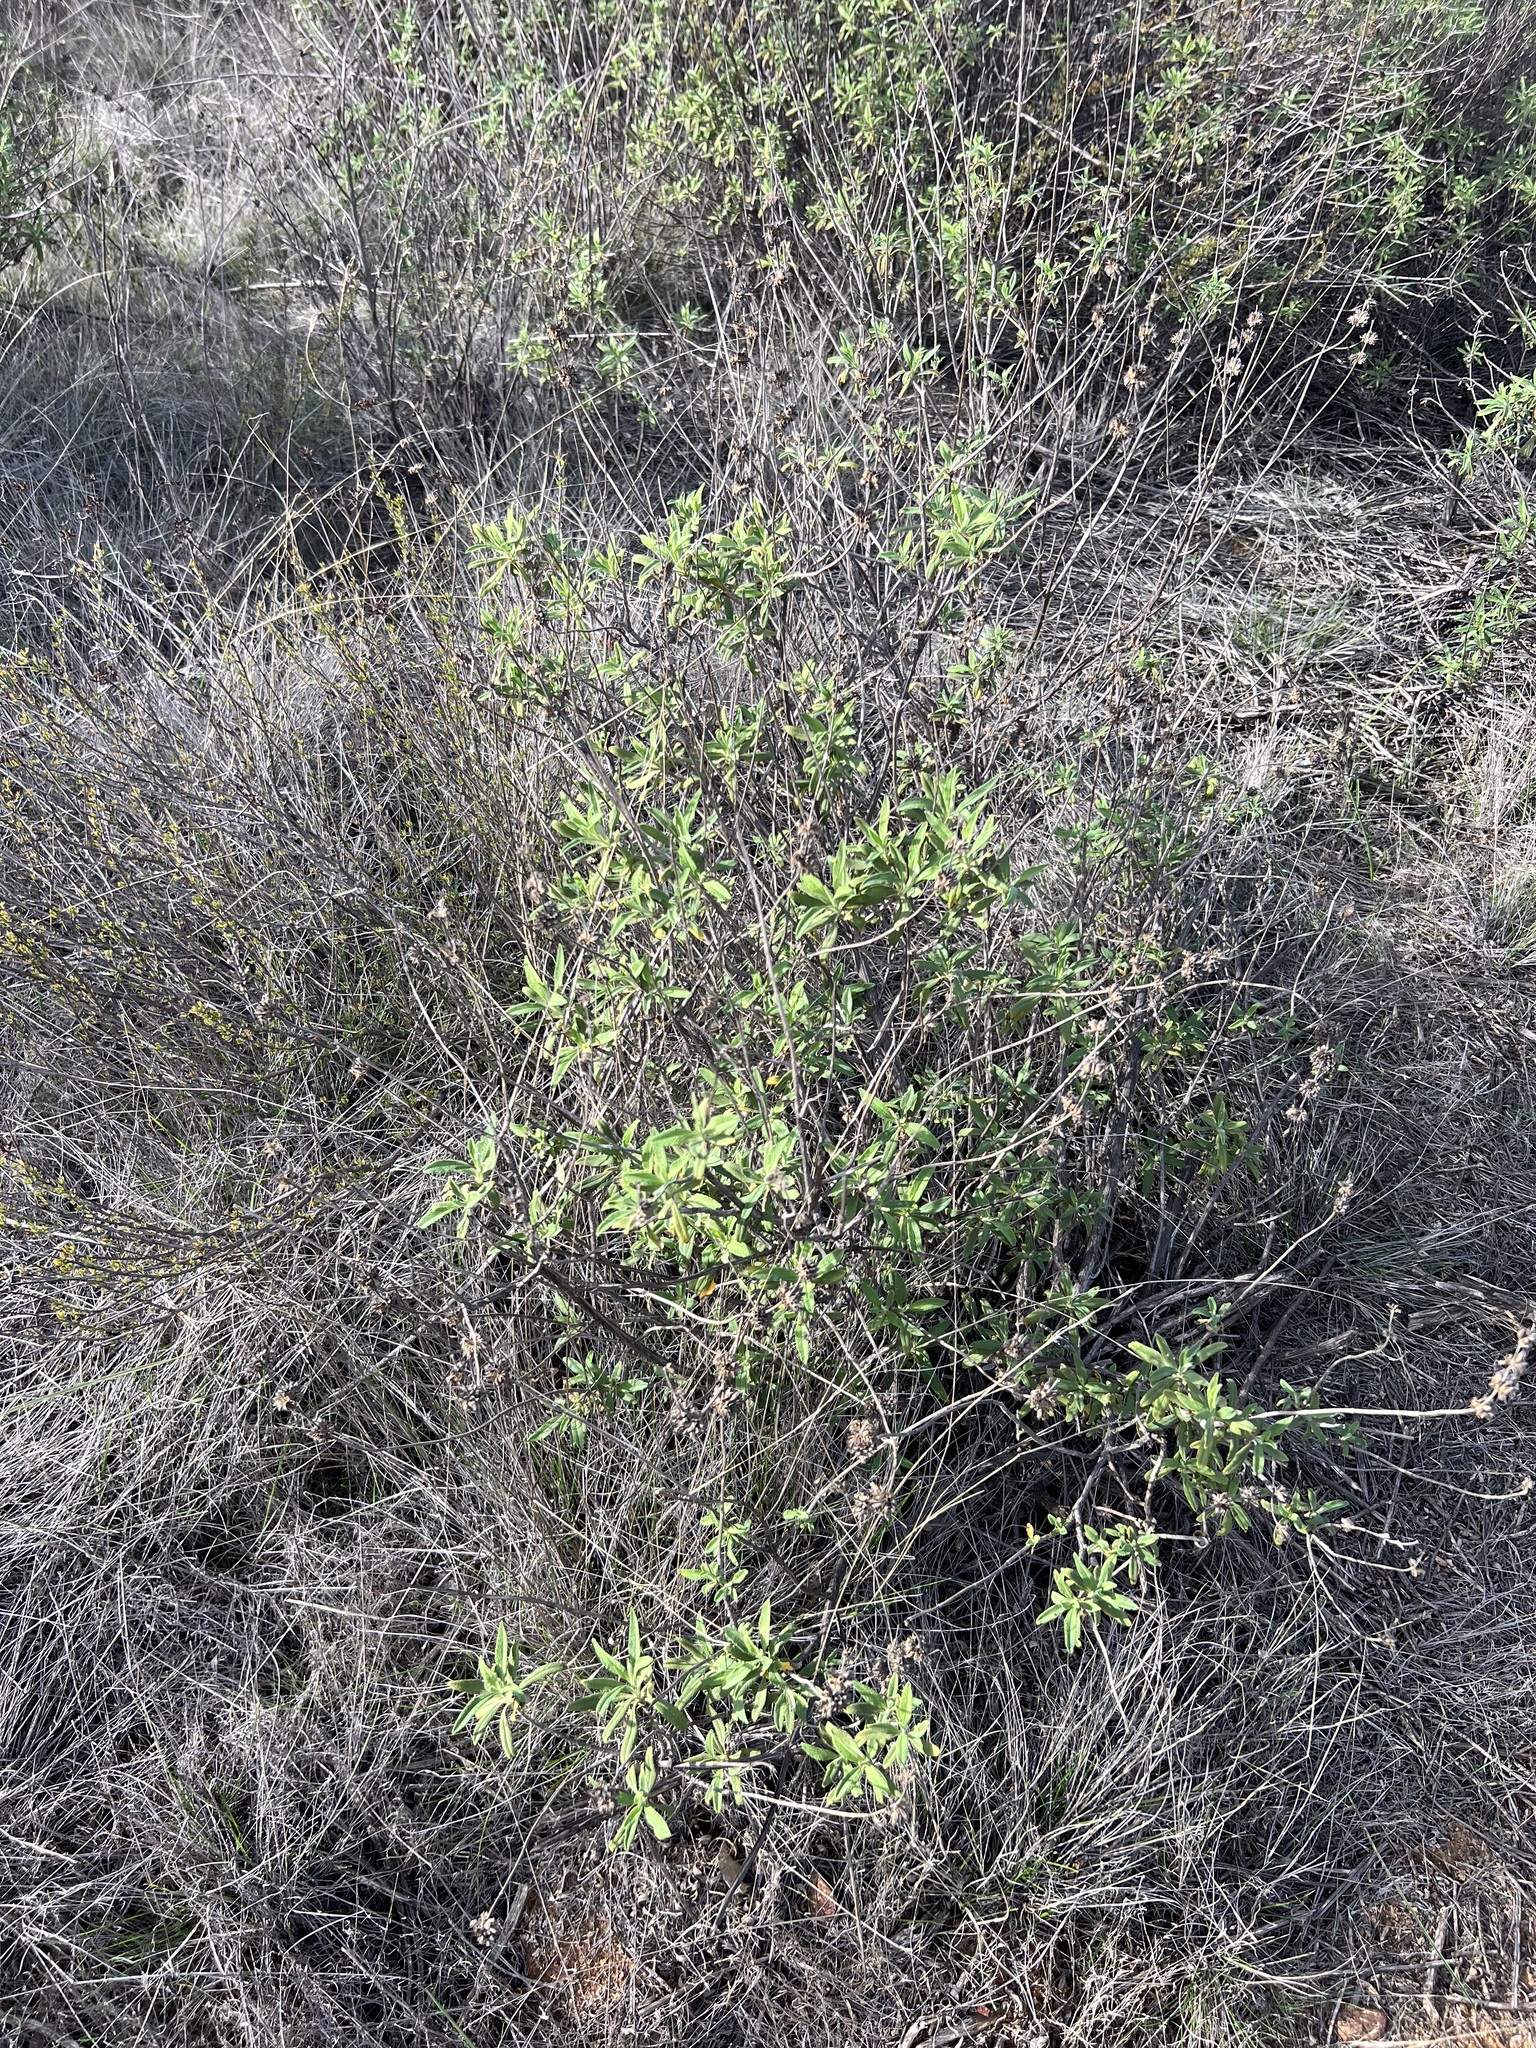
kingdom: Plantae
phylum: Tracheophyta
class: Magnoliopsida
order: Lamiales
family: Lamiaceae
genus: Salvia
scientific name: Salvia mellifera
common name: Black sage
